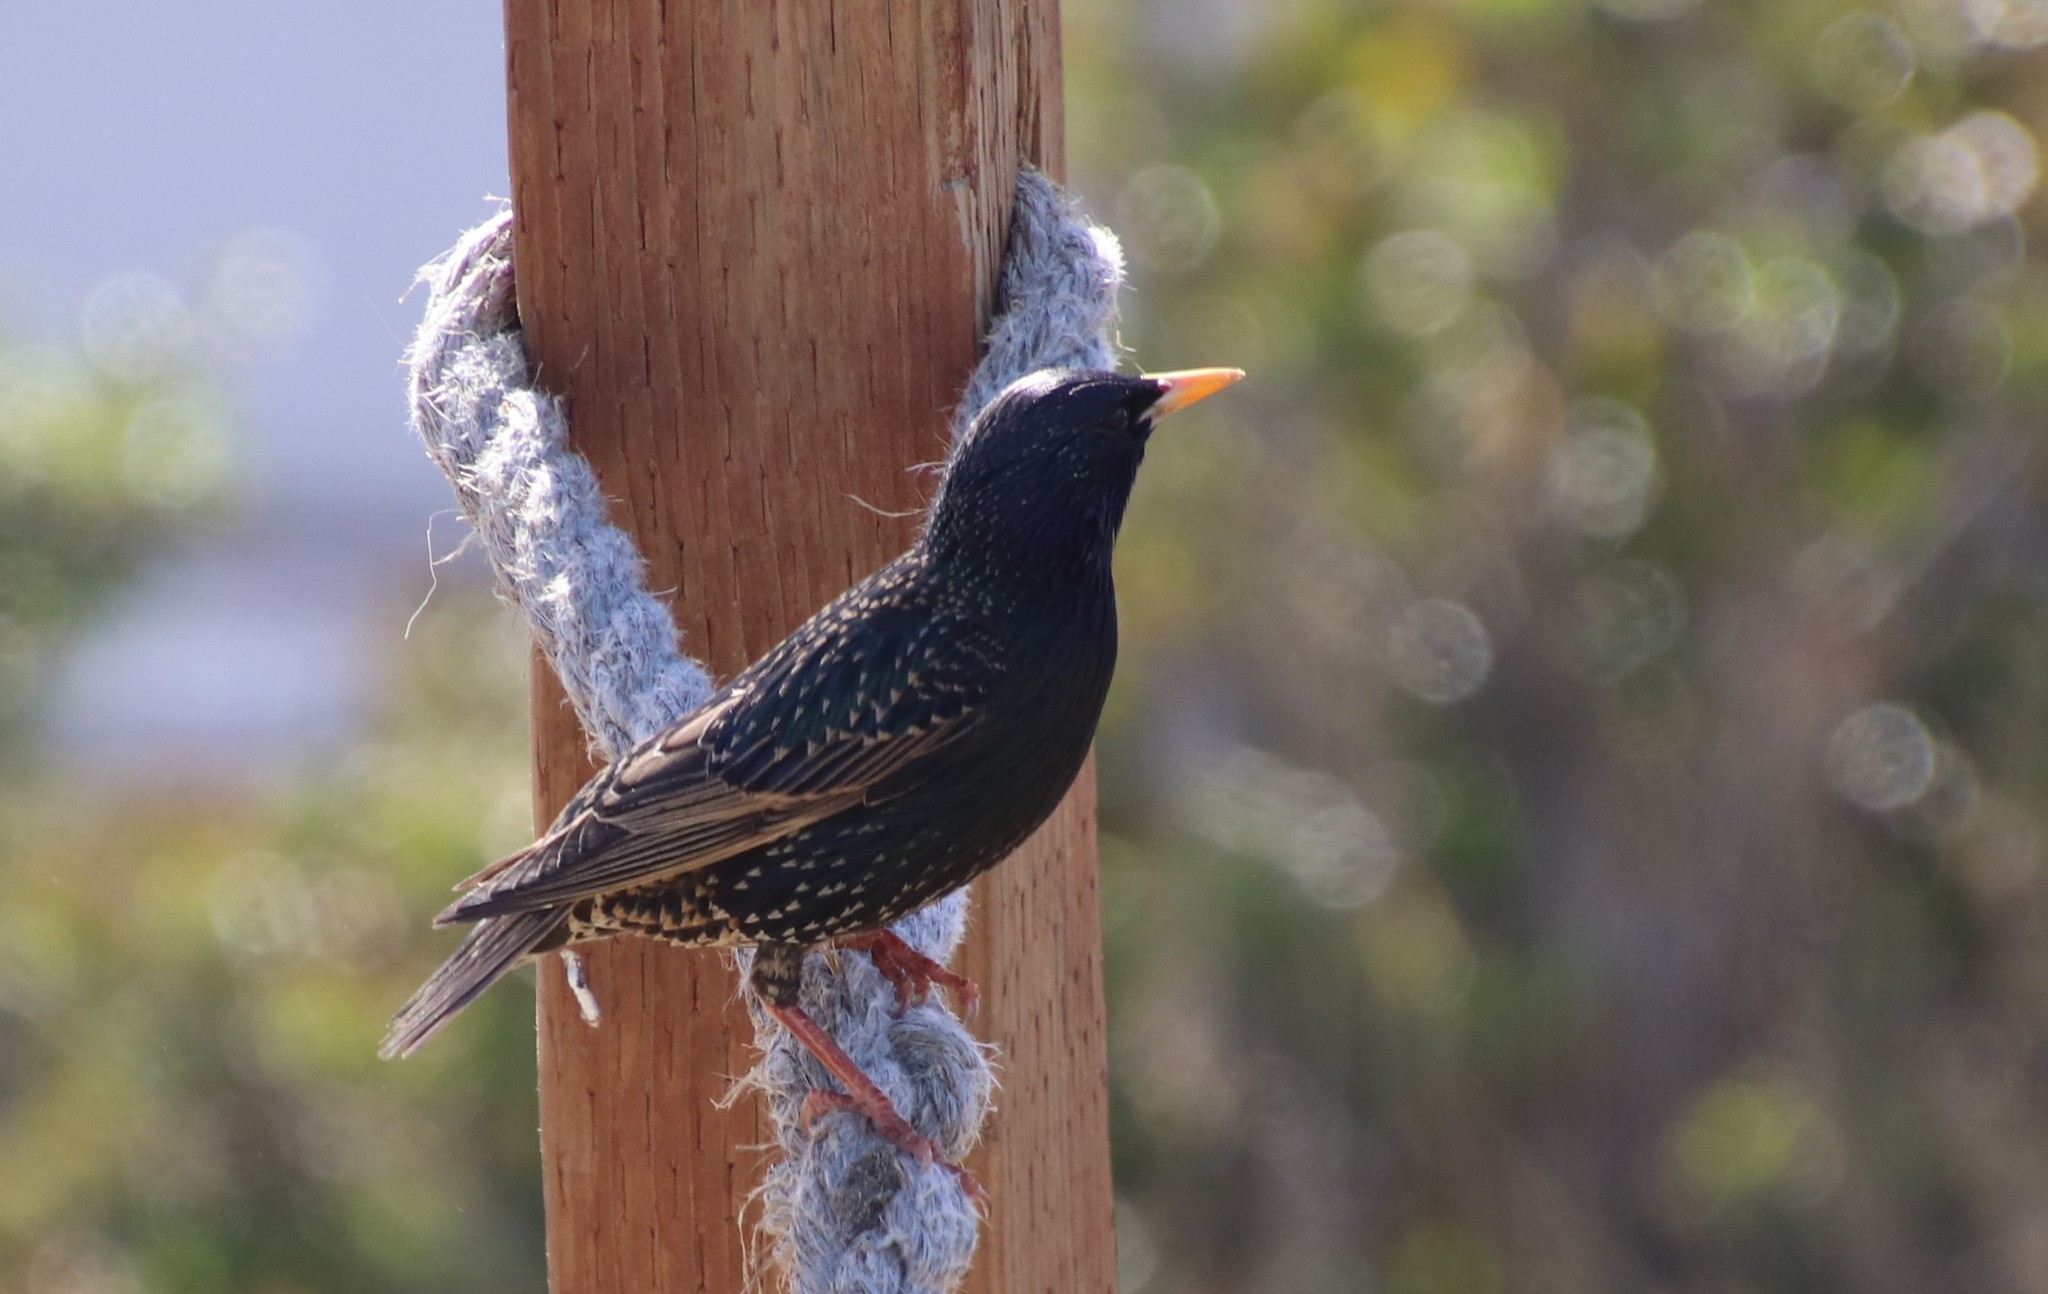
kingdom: Animalia
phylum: Chordata
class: Aves
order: Passeriformes
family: Sturnidae
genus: Sturnus
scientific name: Sturnus vulgaris
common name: Common starling
